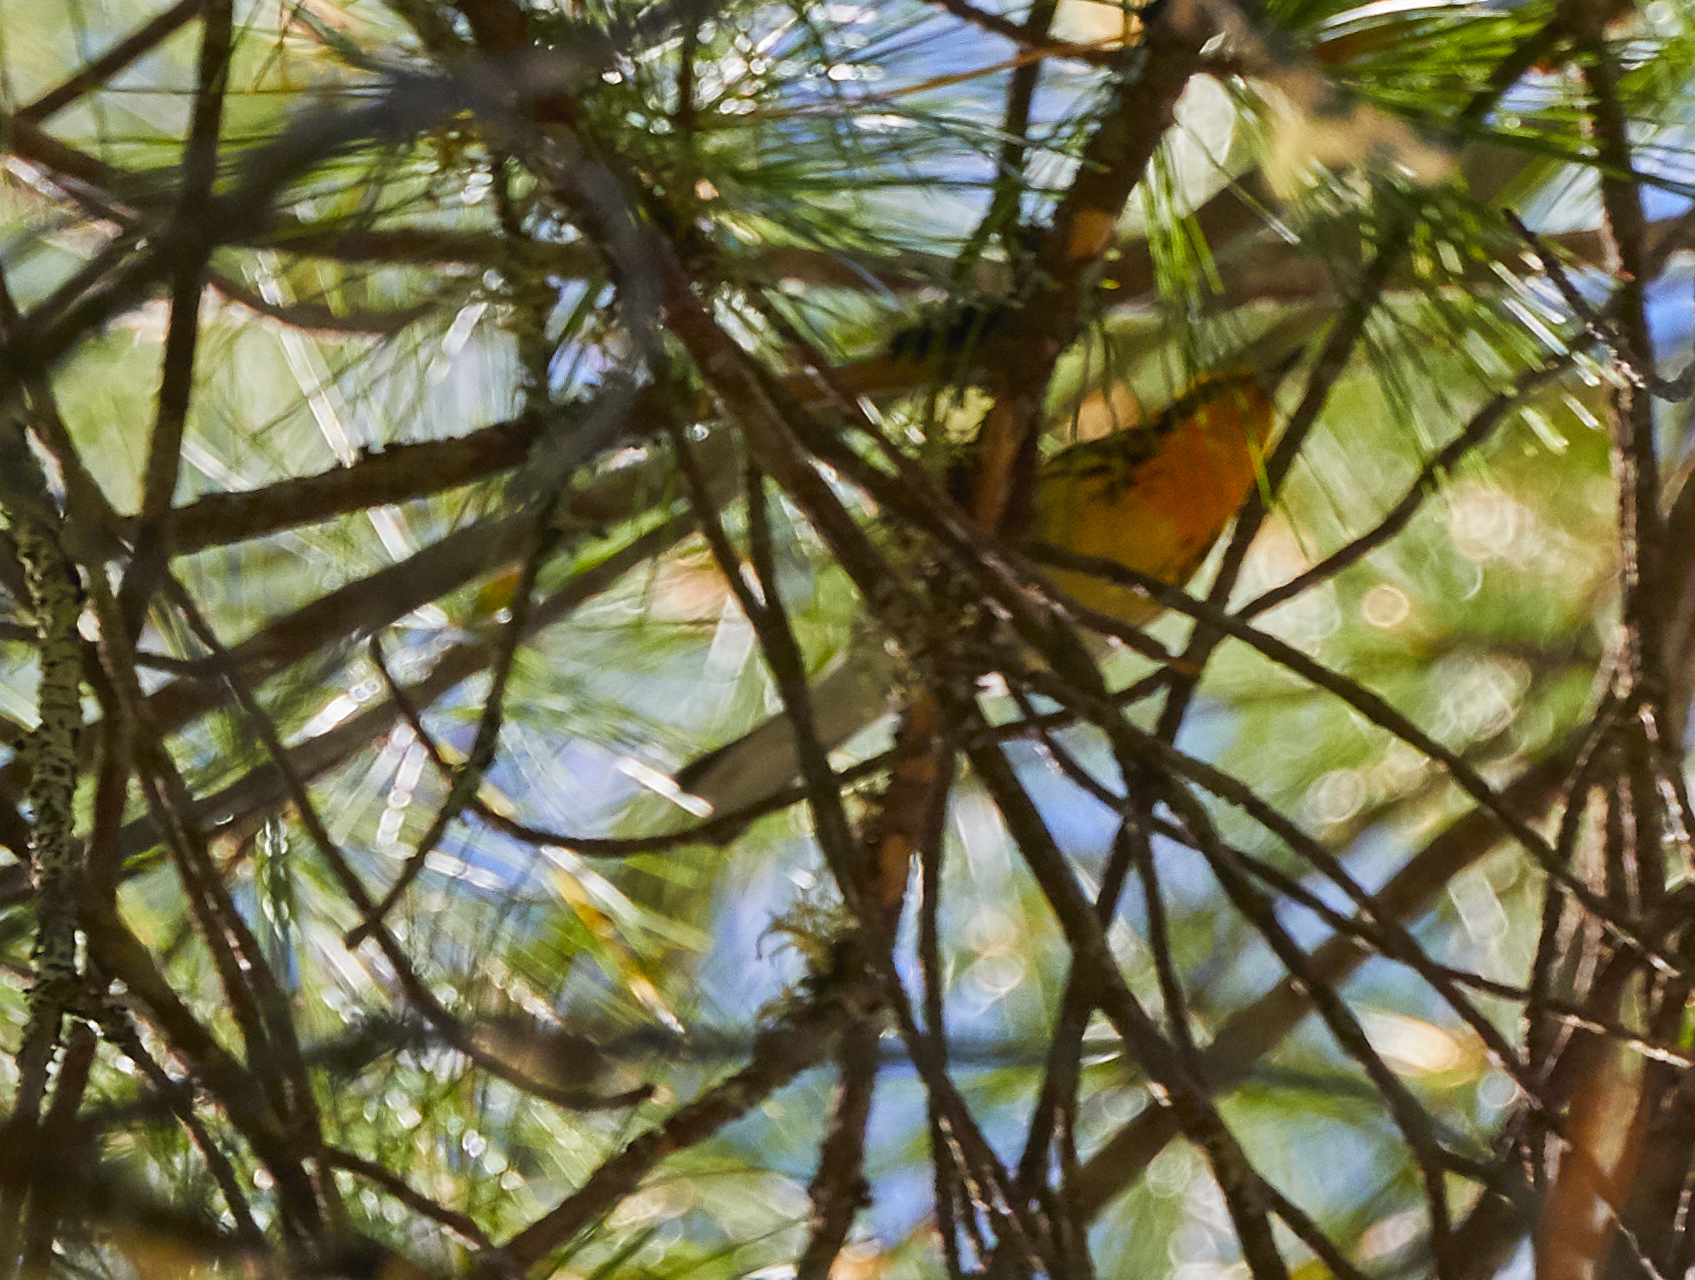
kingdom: Animalia
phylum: Chordata
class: Aves
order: Passeriformes
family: Parulidae
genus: Setophaga
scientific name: Setophaga fusca
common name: Blackburnian warbler
